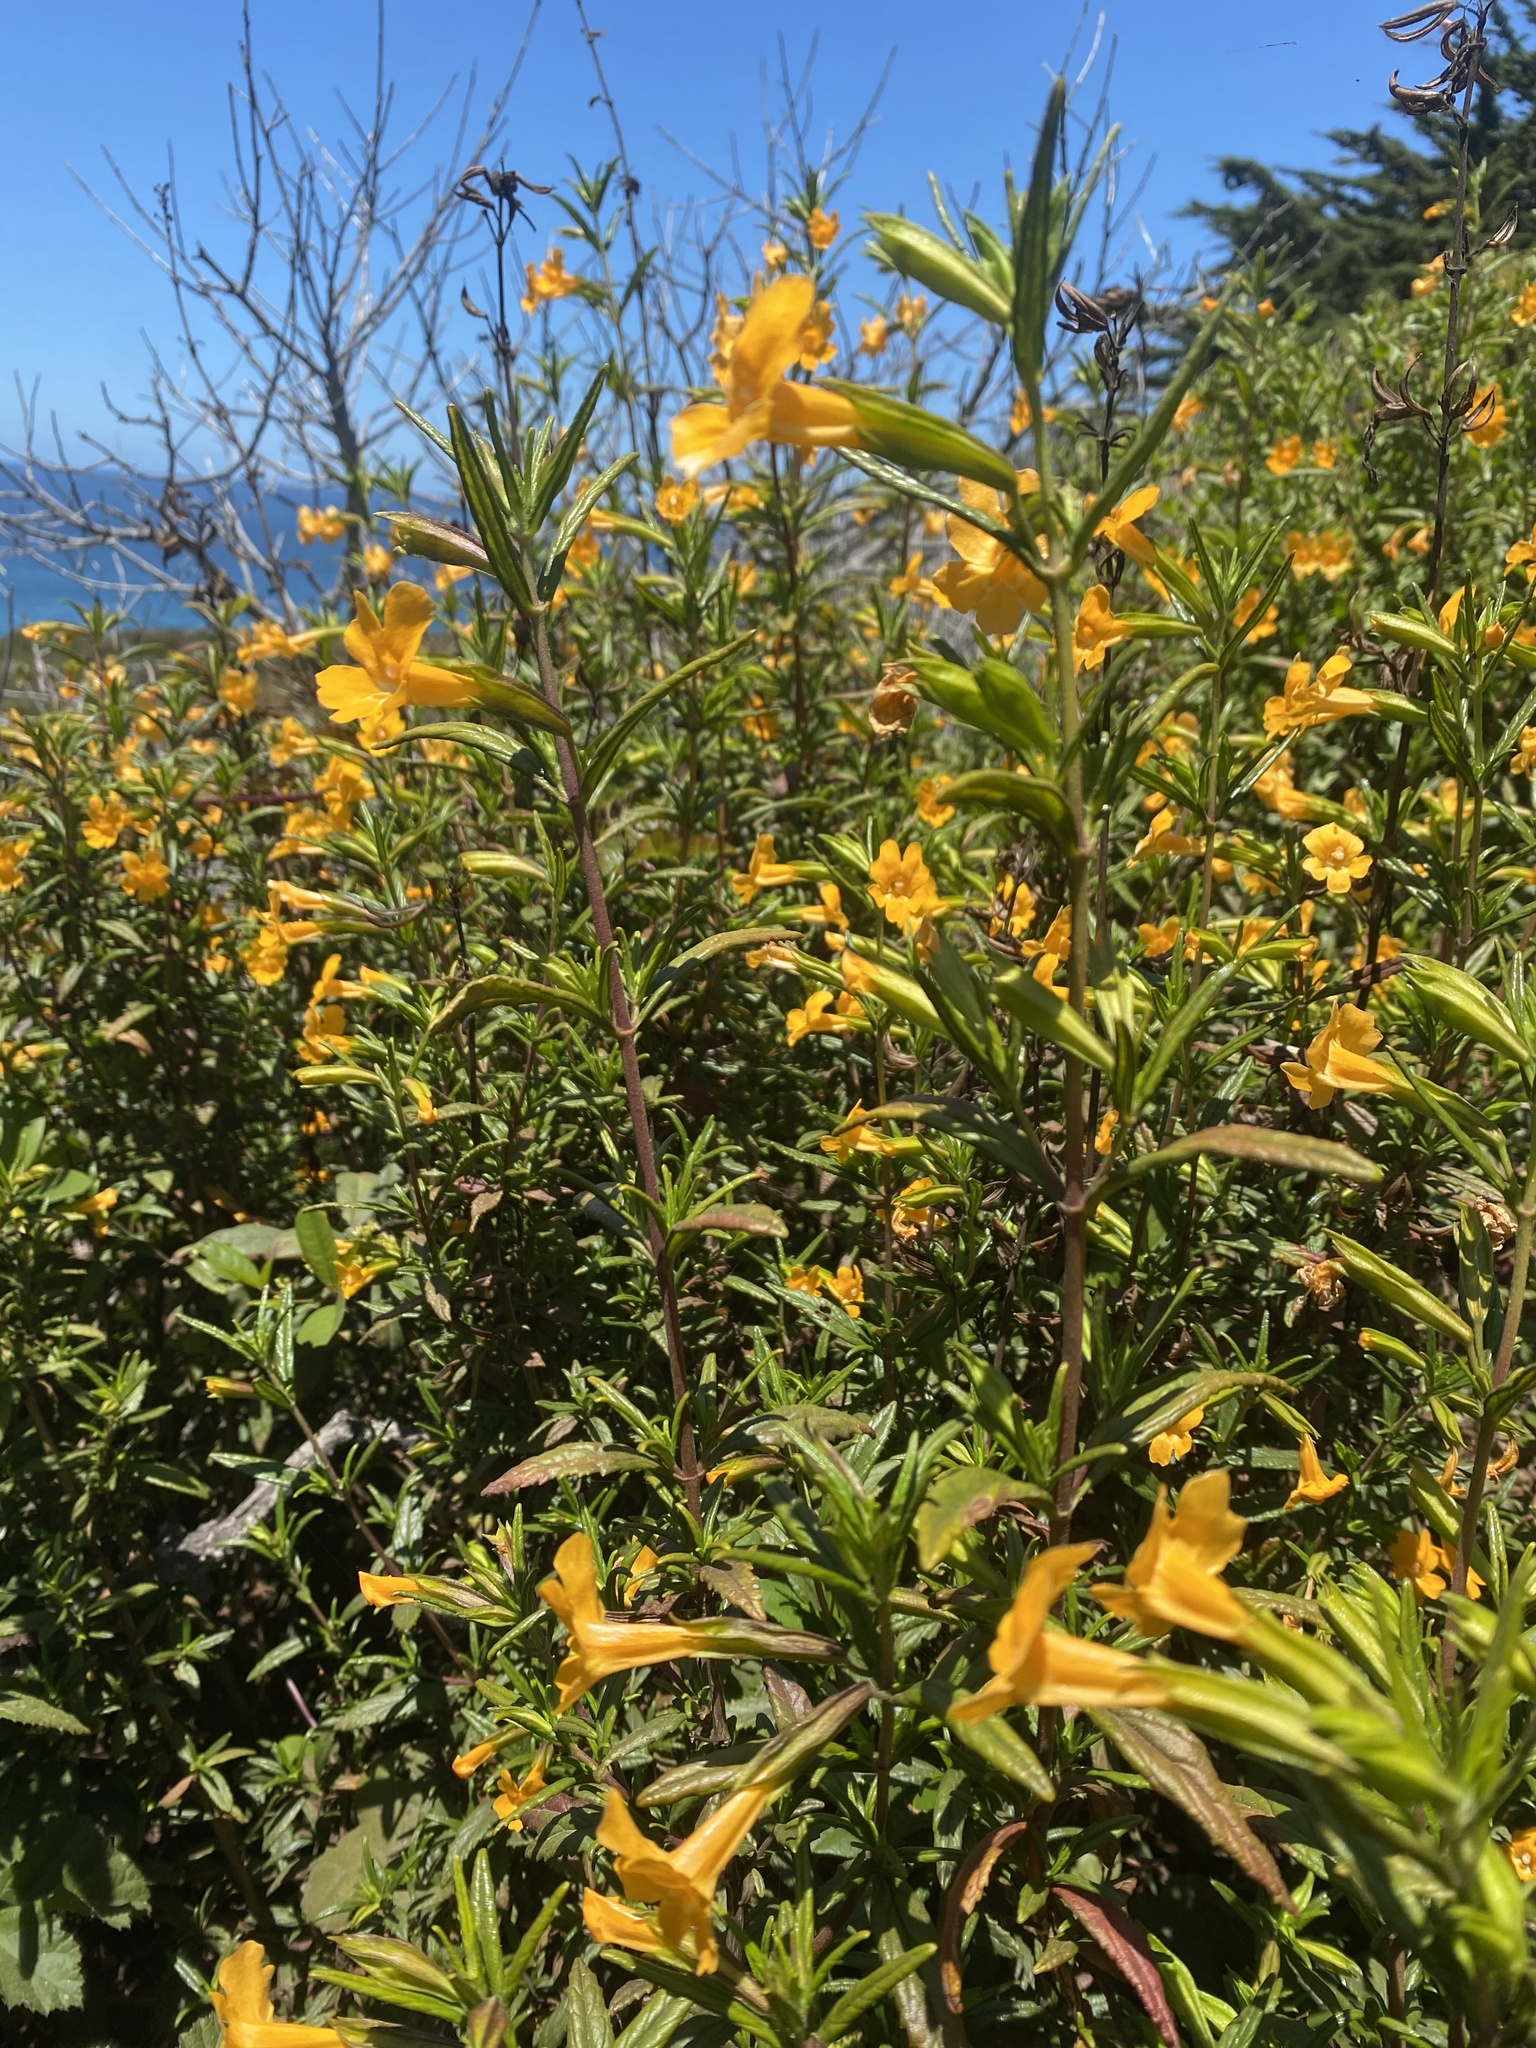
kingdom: Plantae
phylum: Tracheophyta
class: Magnoliopsida
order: Lamiales
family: Phrymaceae
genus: Diplacus
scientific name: Diplacus aurantiacus
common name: Bush monkey-flower
